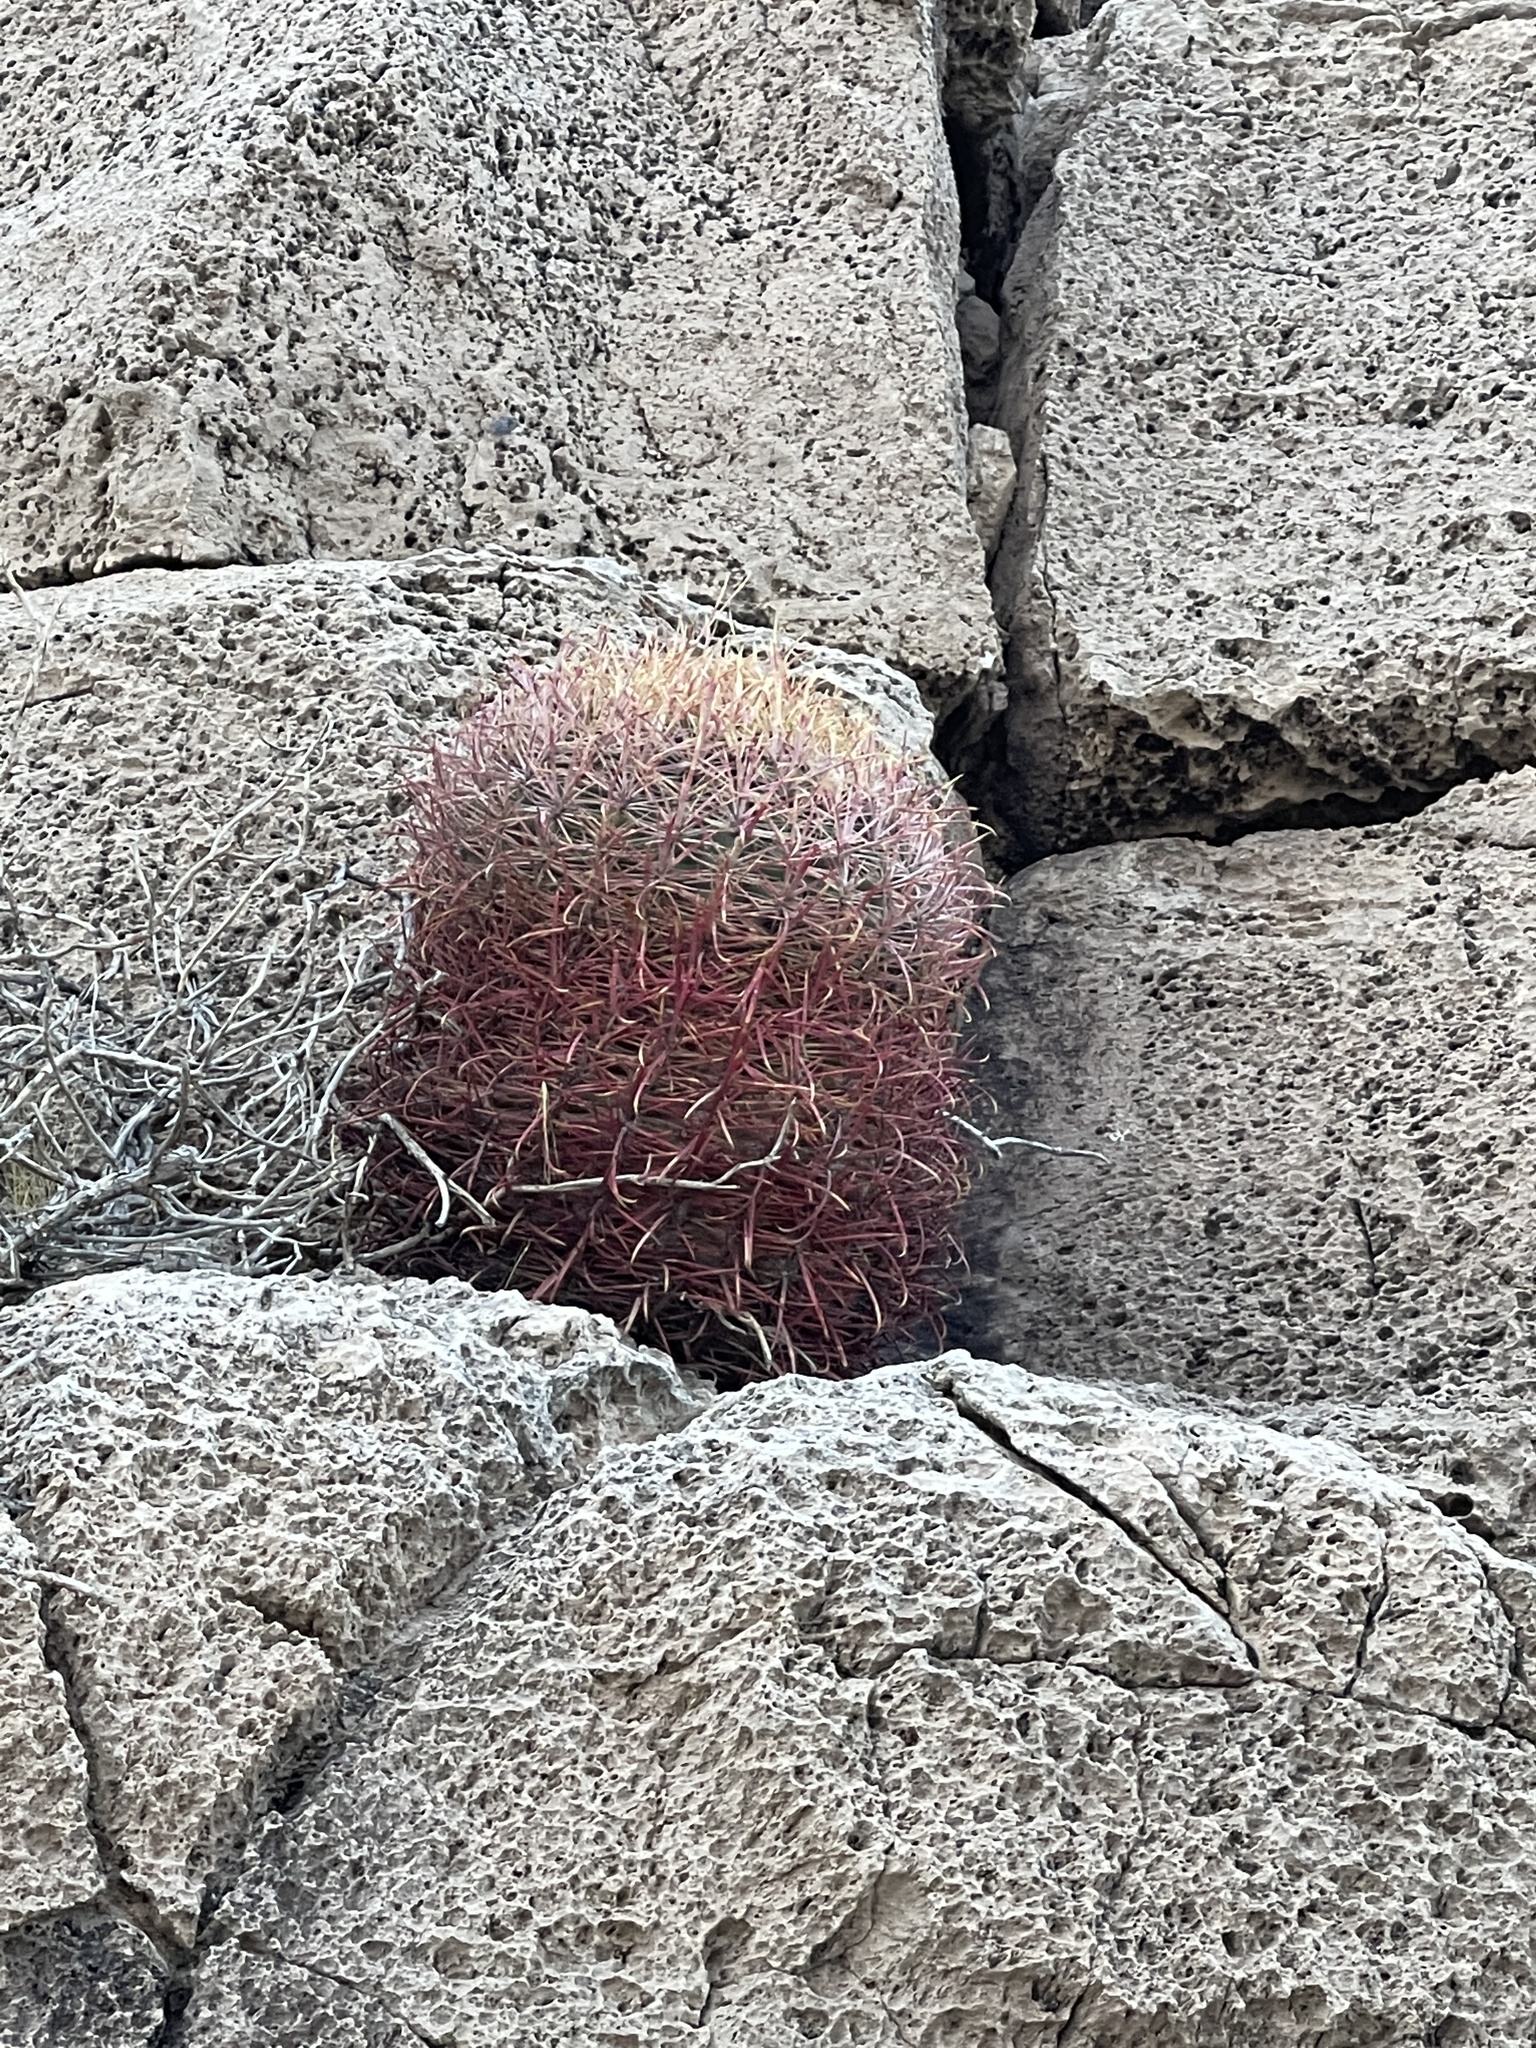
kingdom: Plantae
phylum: Tracheophyta
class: Magnoliopsida
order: Caryophyllales
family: Cactaceae
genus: Ferocactus
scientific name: Ferocactus cylindraceus
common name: California barrel cactus
